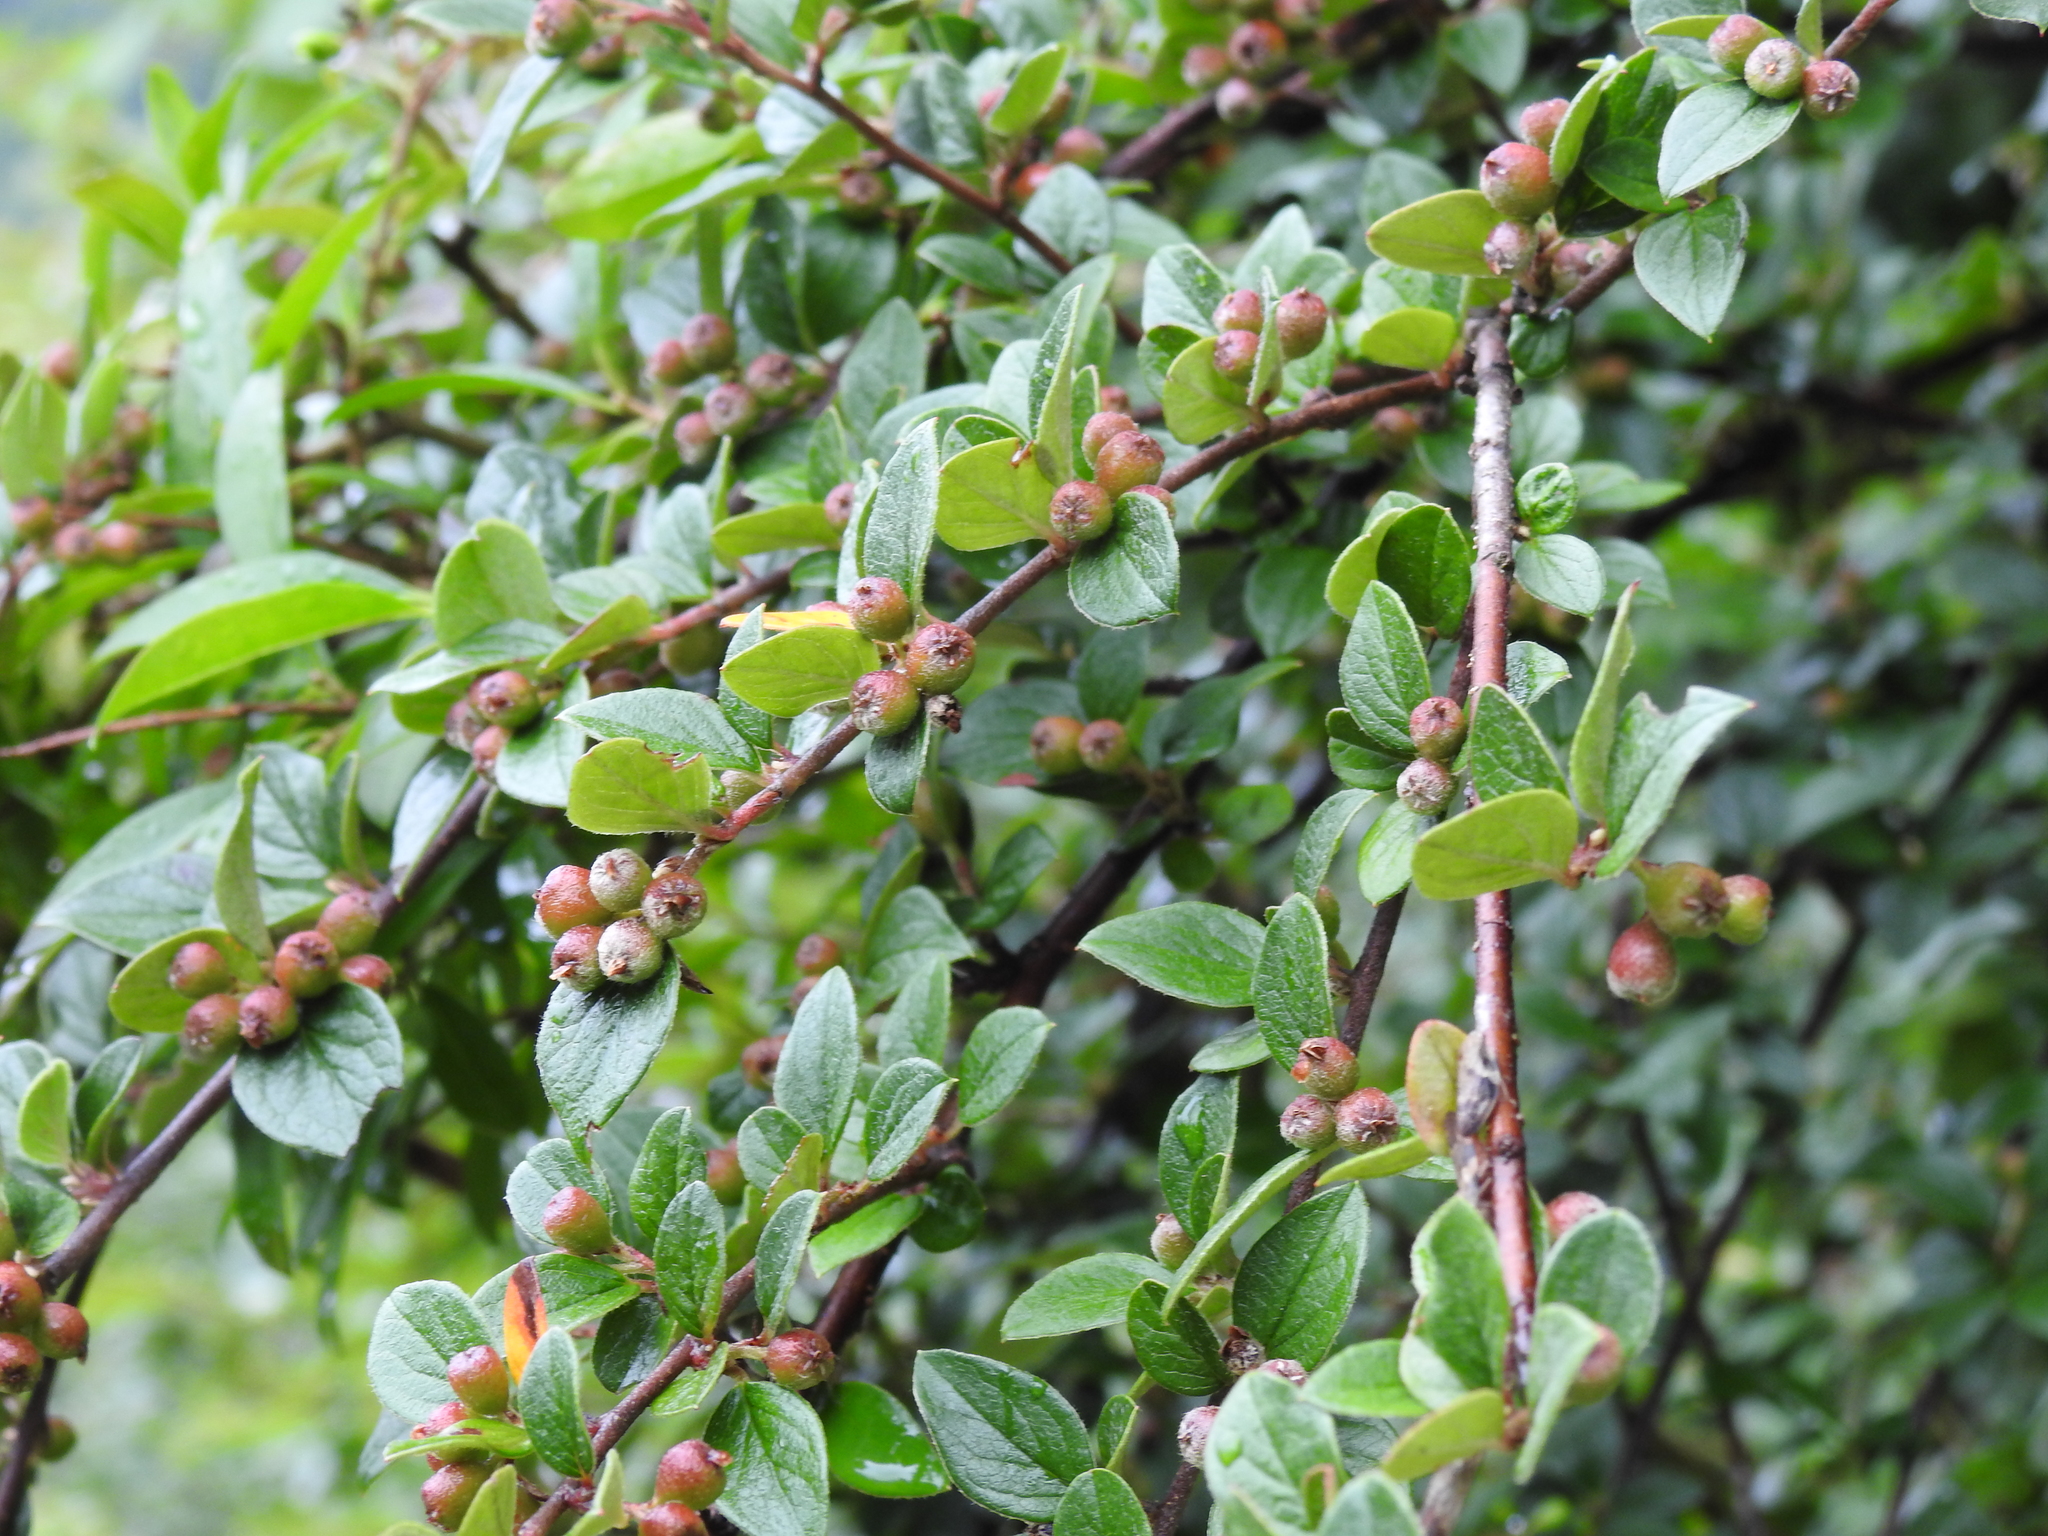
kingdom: Plantae
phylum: Tracheophyta
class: Magnoliopsida
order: Rosales
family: Rosaceae
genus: Cotoneaster
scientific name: Cotoneaster dielsianus
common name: Diels's cotoneaster
